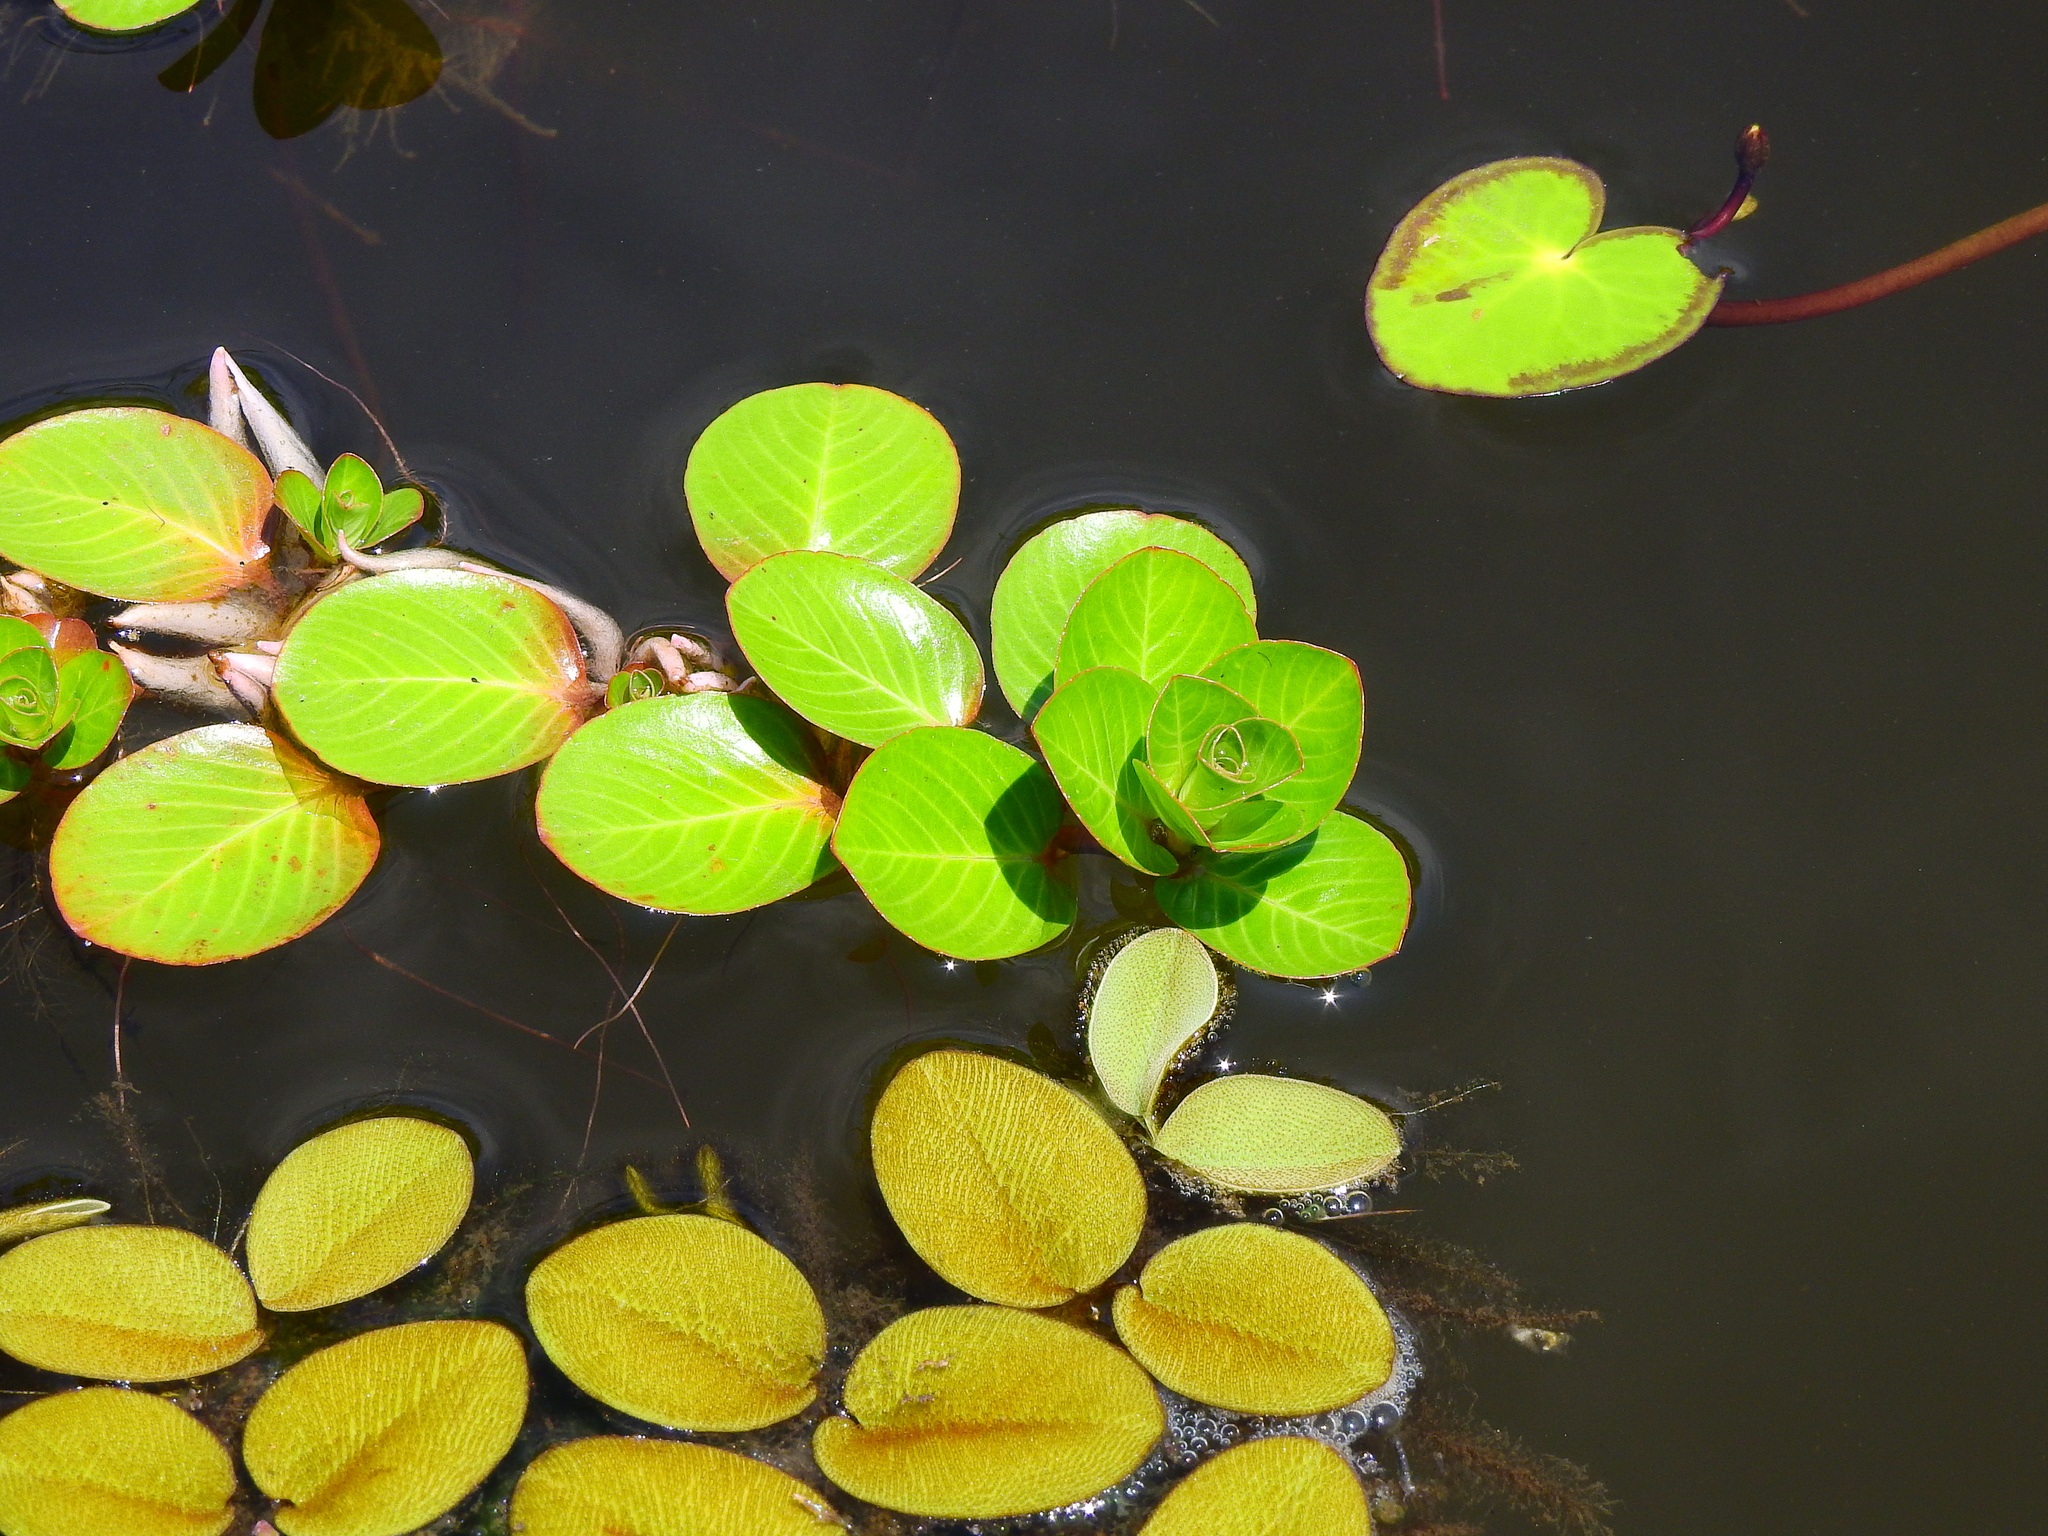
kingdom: Plantae
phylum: Tracheophyta
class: Magnoliopsida
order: Myrtales
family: Onagraceae
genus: Ludwigia
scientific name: Ludwigia peploides
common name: Floating primrose-willow
